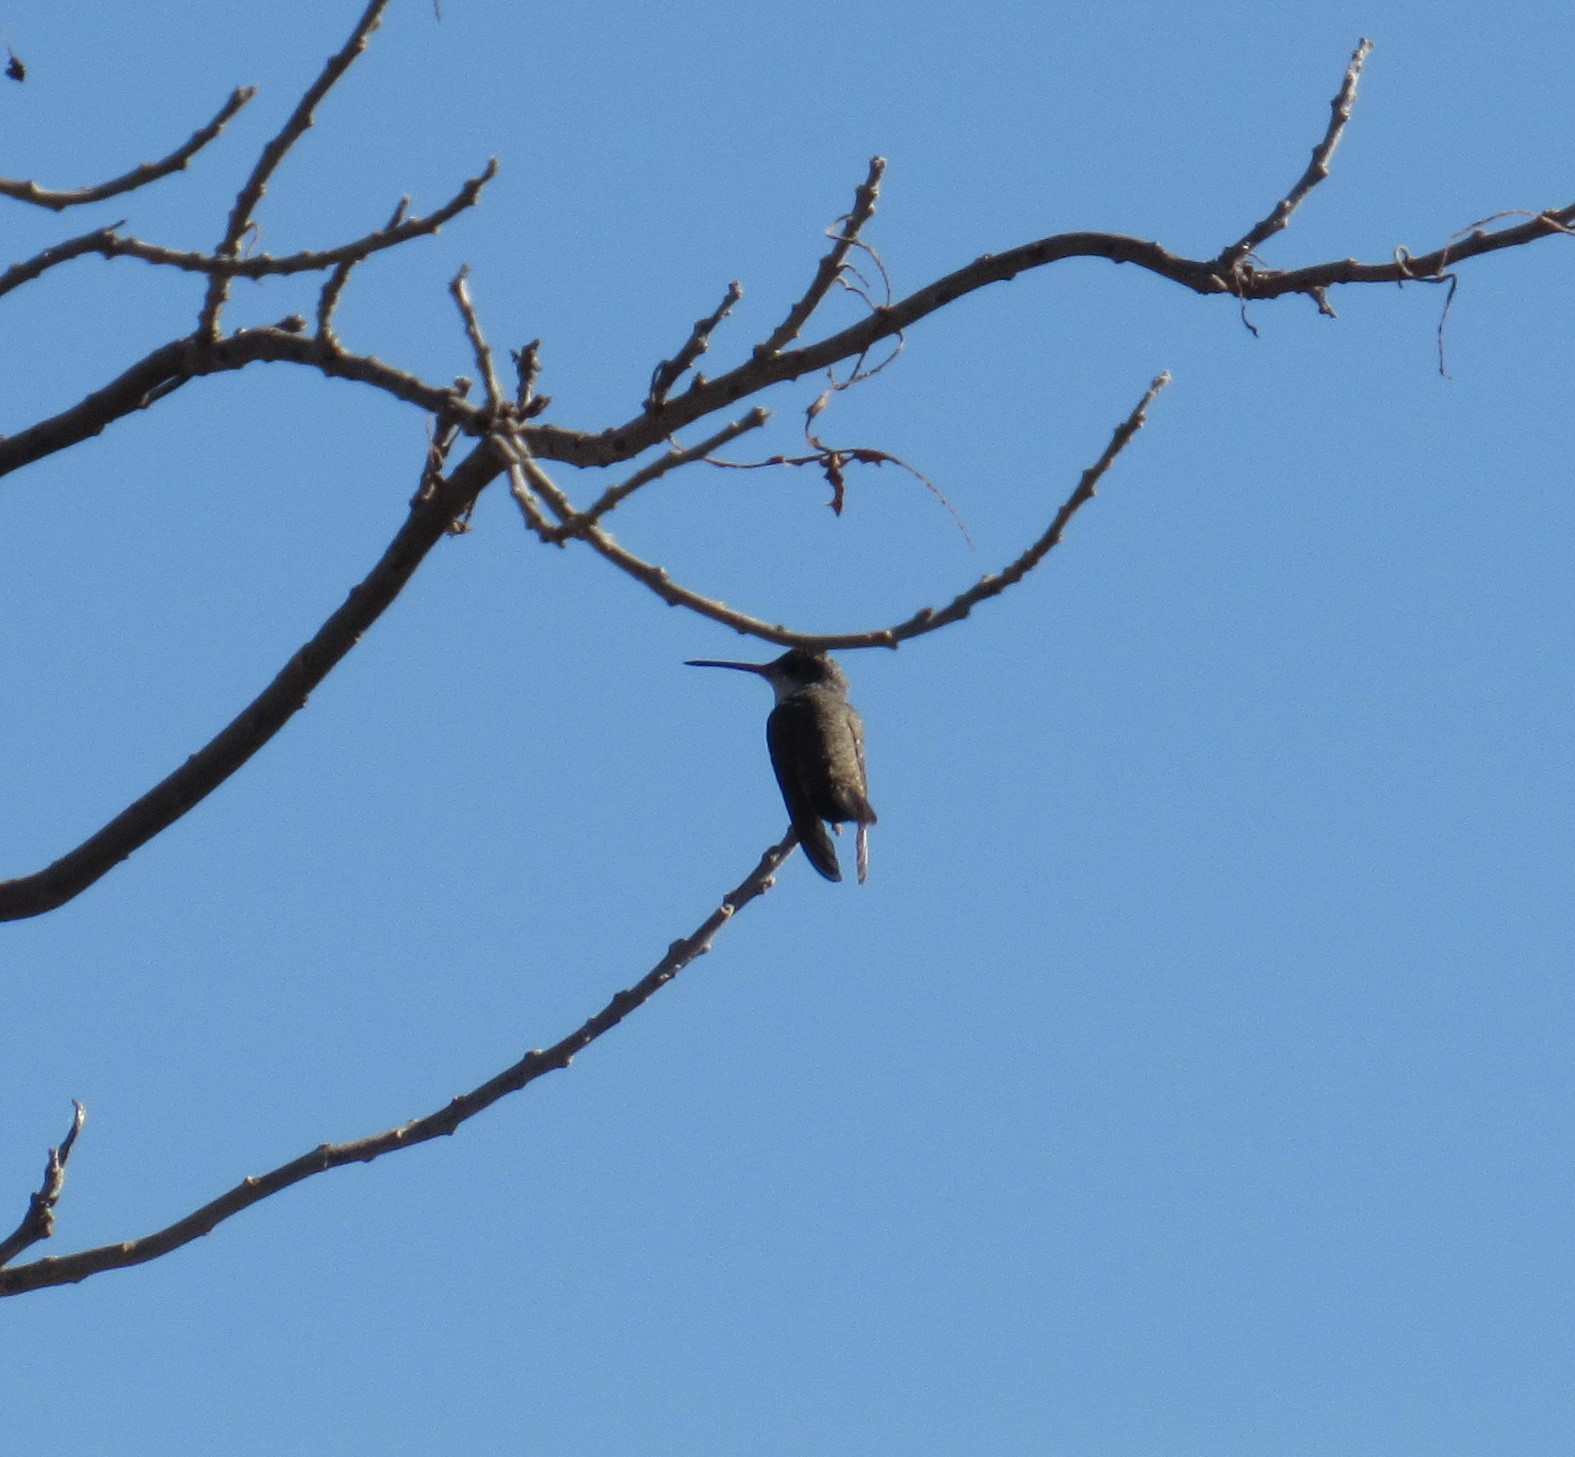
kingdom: Animalia
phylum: Chordata
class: Aves
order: Apodiformes
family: Trochilidae
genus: Leucolia
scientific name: Leucolia violiceps
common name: Violet-crowned hummingbird
